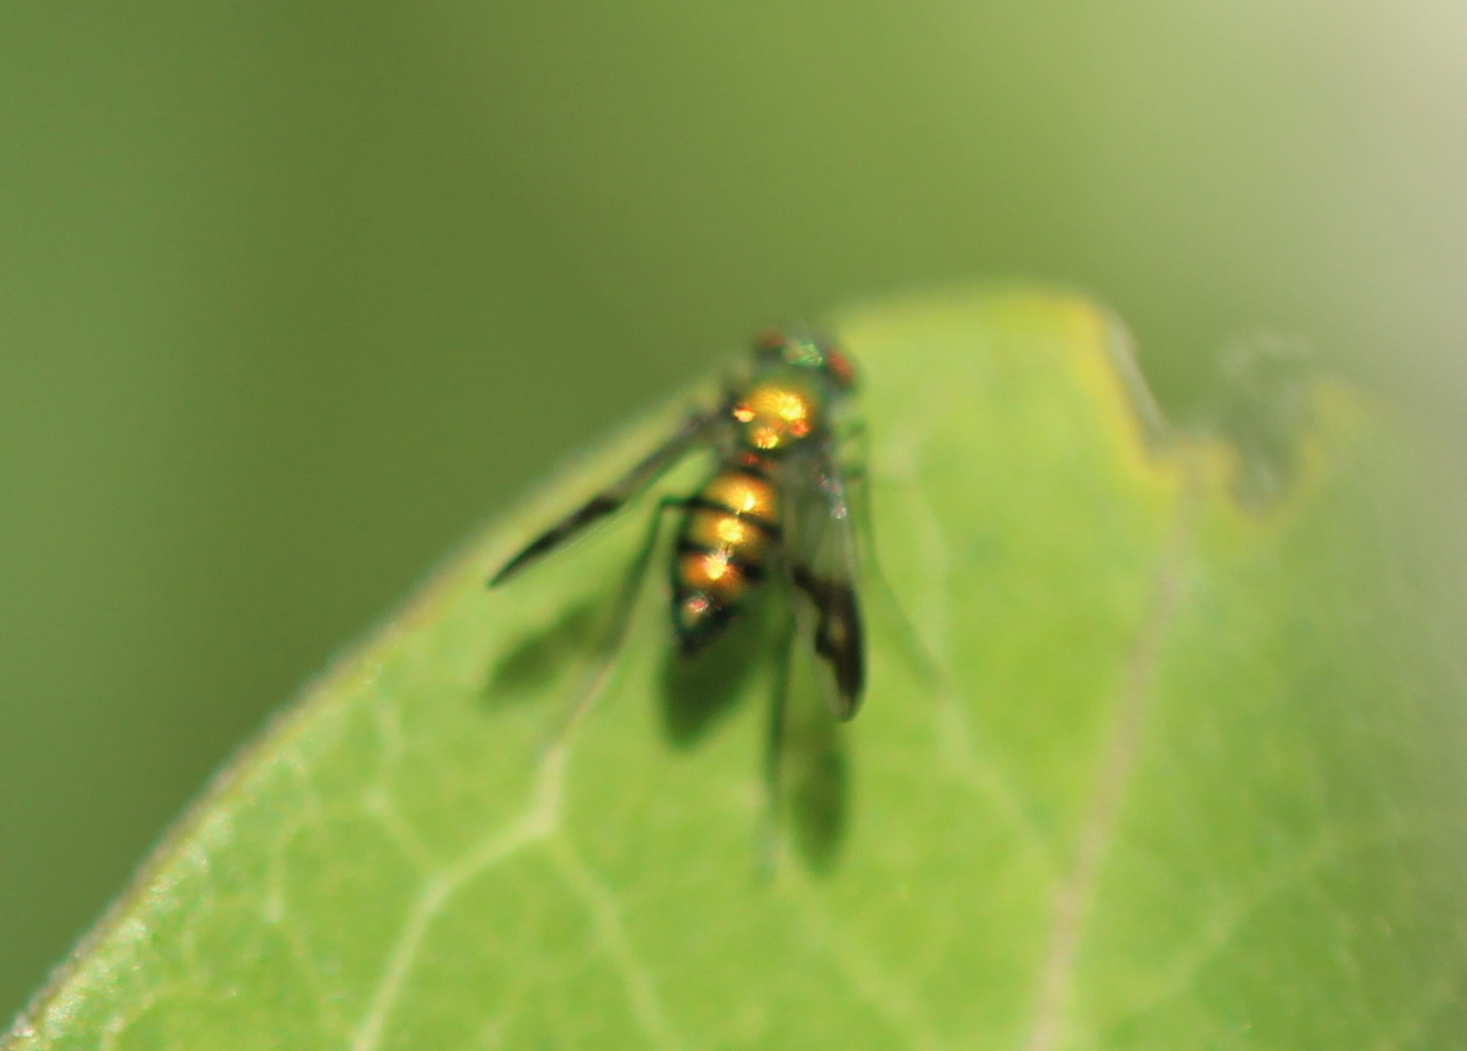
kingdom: Animalia
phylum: Arthropoda
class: Insecta
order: Diptera
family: Dolichopodidae
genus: Condylostylus
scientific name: Condylostylus patibulatus
